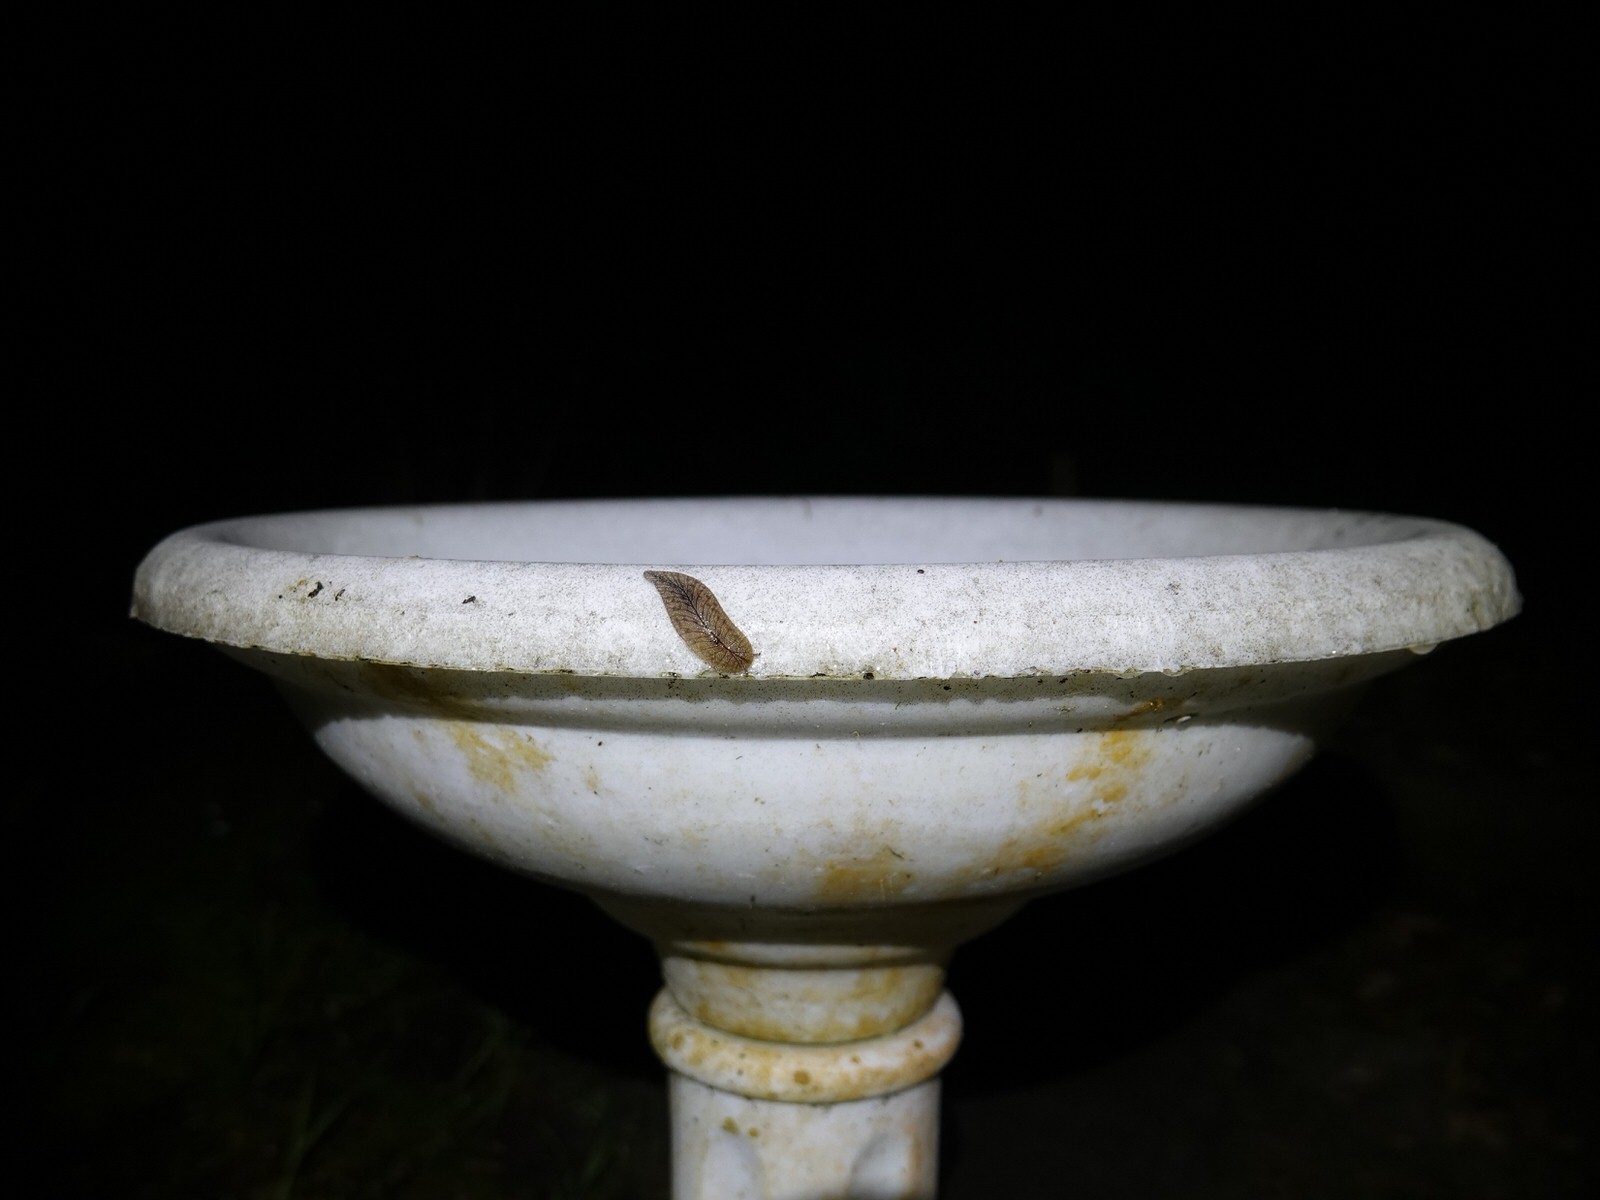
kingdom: Animalia
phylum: Arthropoda
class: Insecta
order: Lepidoptera
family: Tineidae
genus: Opogona
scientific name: Opogona omoscopa
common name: Moth
